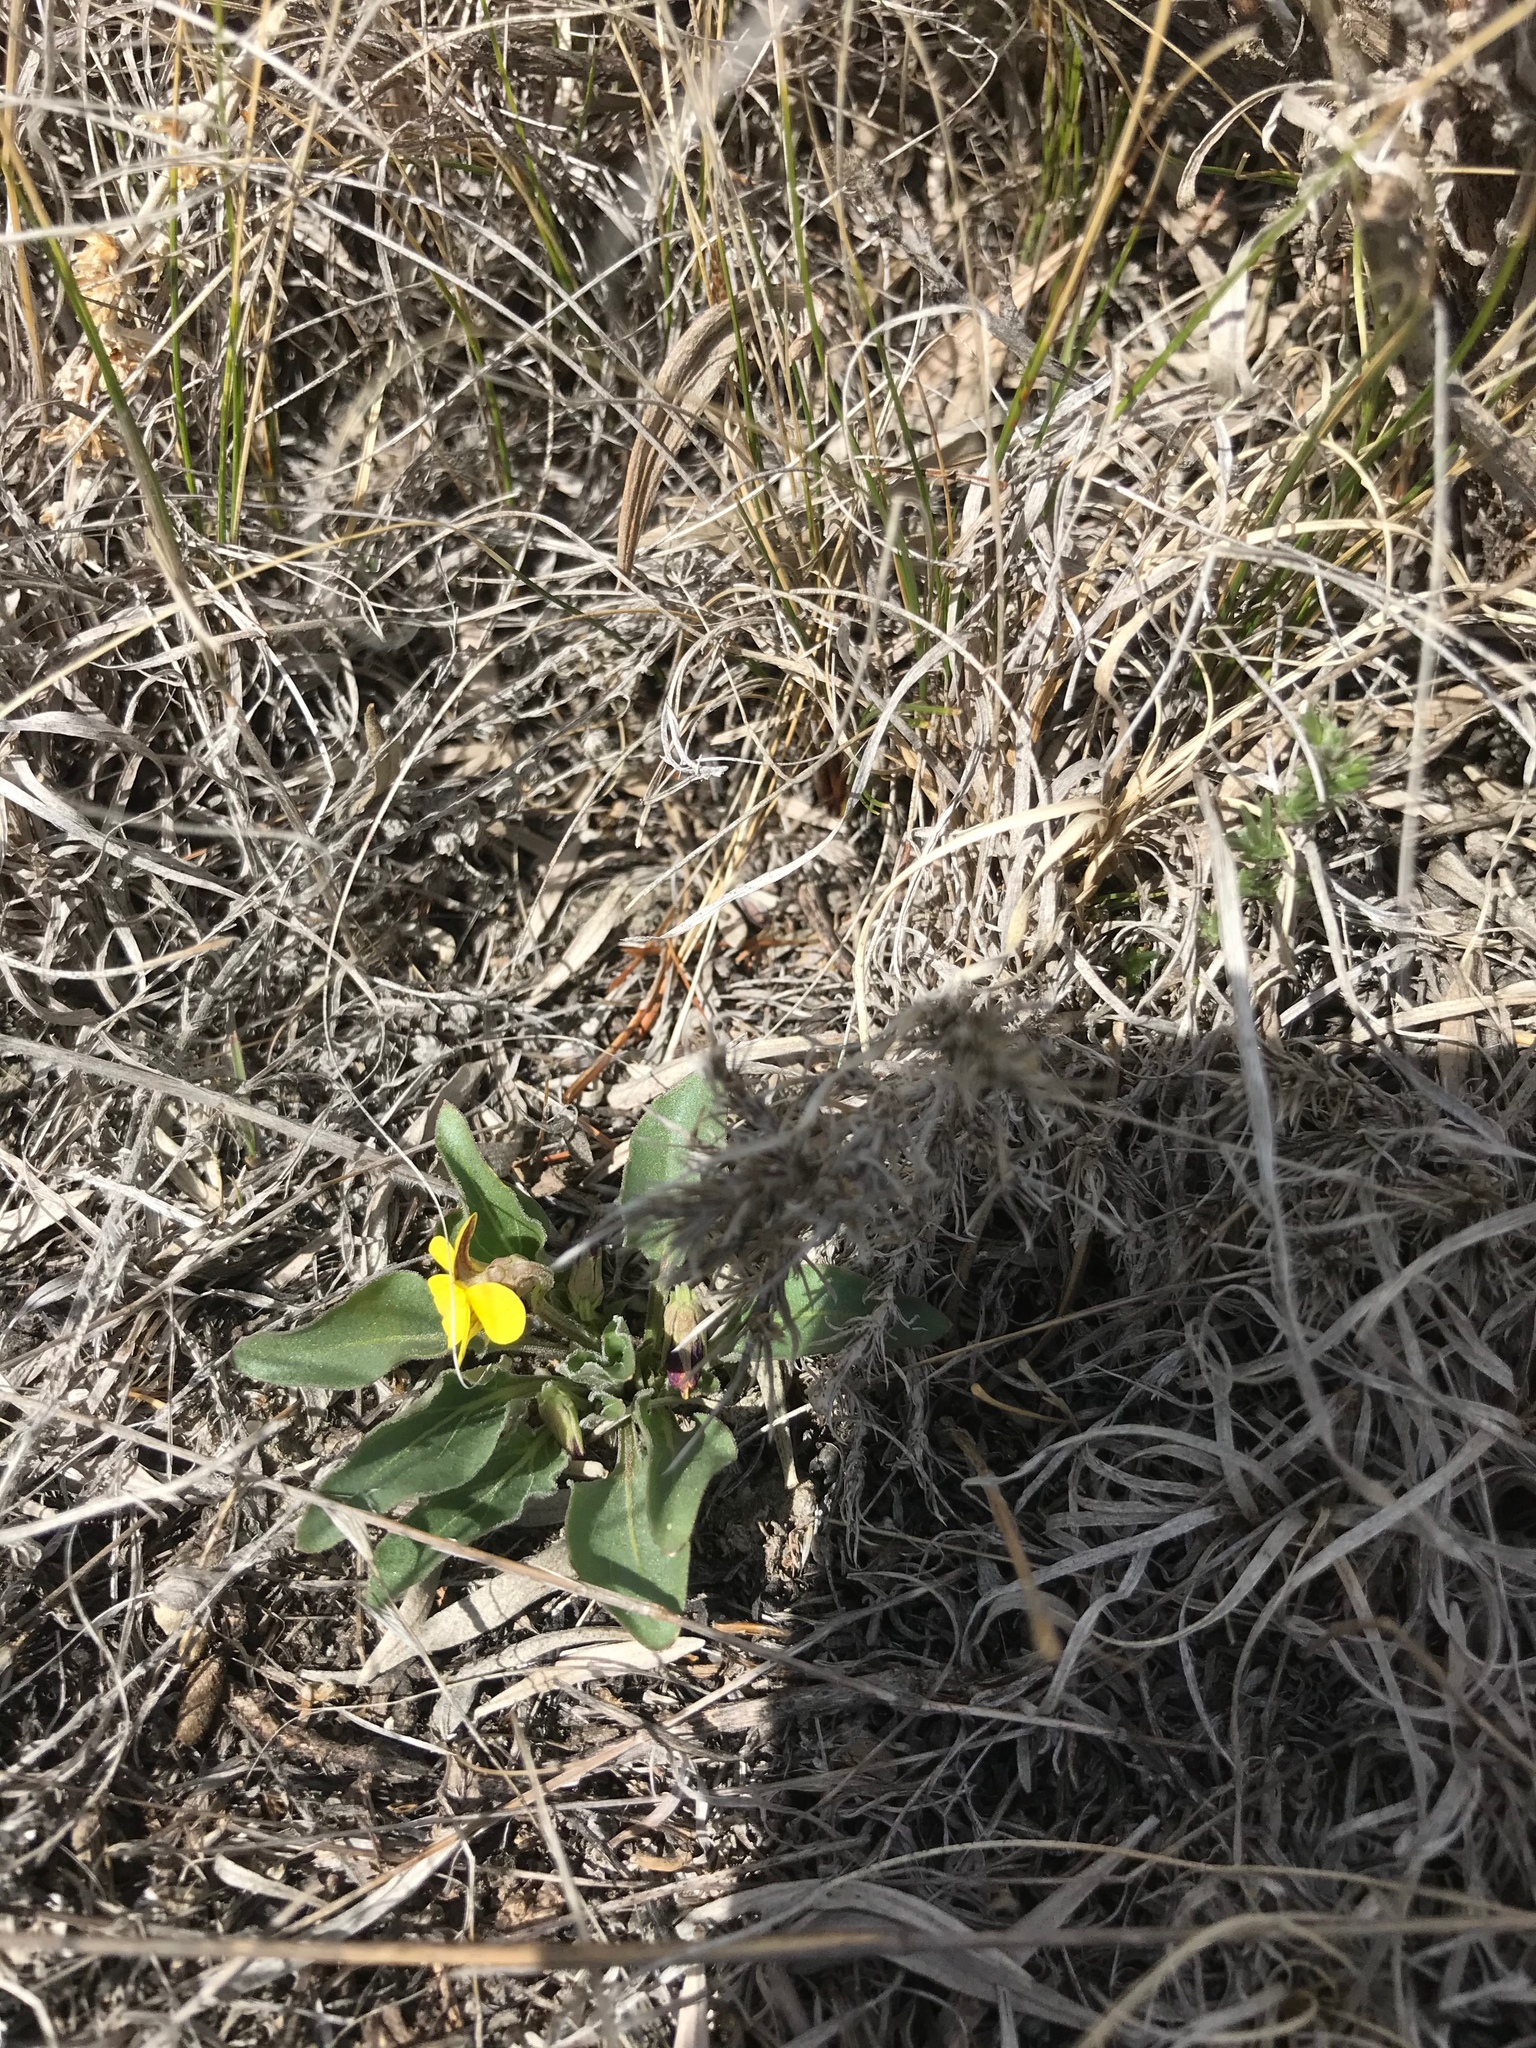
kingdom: Plantae
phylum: Tracheophyta
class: Magnoliopsida
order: Malpighiales
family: Violaceae
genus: Viola
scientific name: Viola nuttallii
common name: Yellow prairie violet
